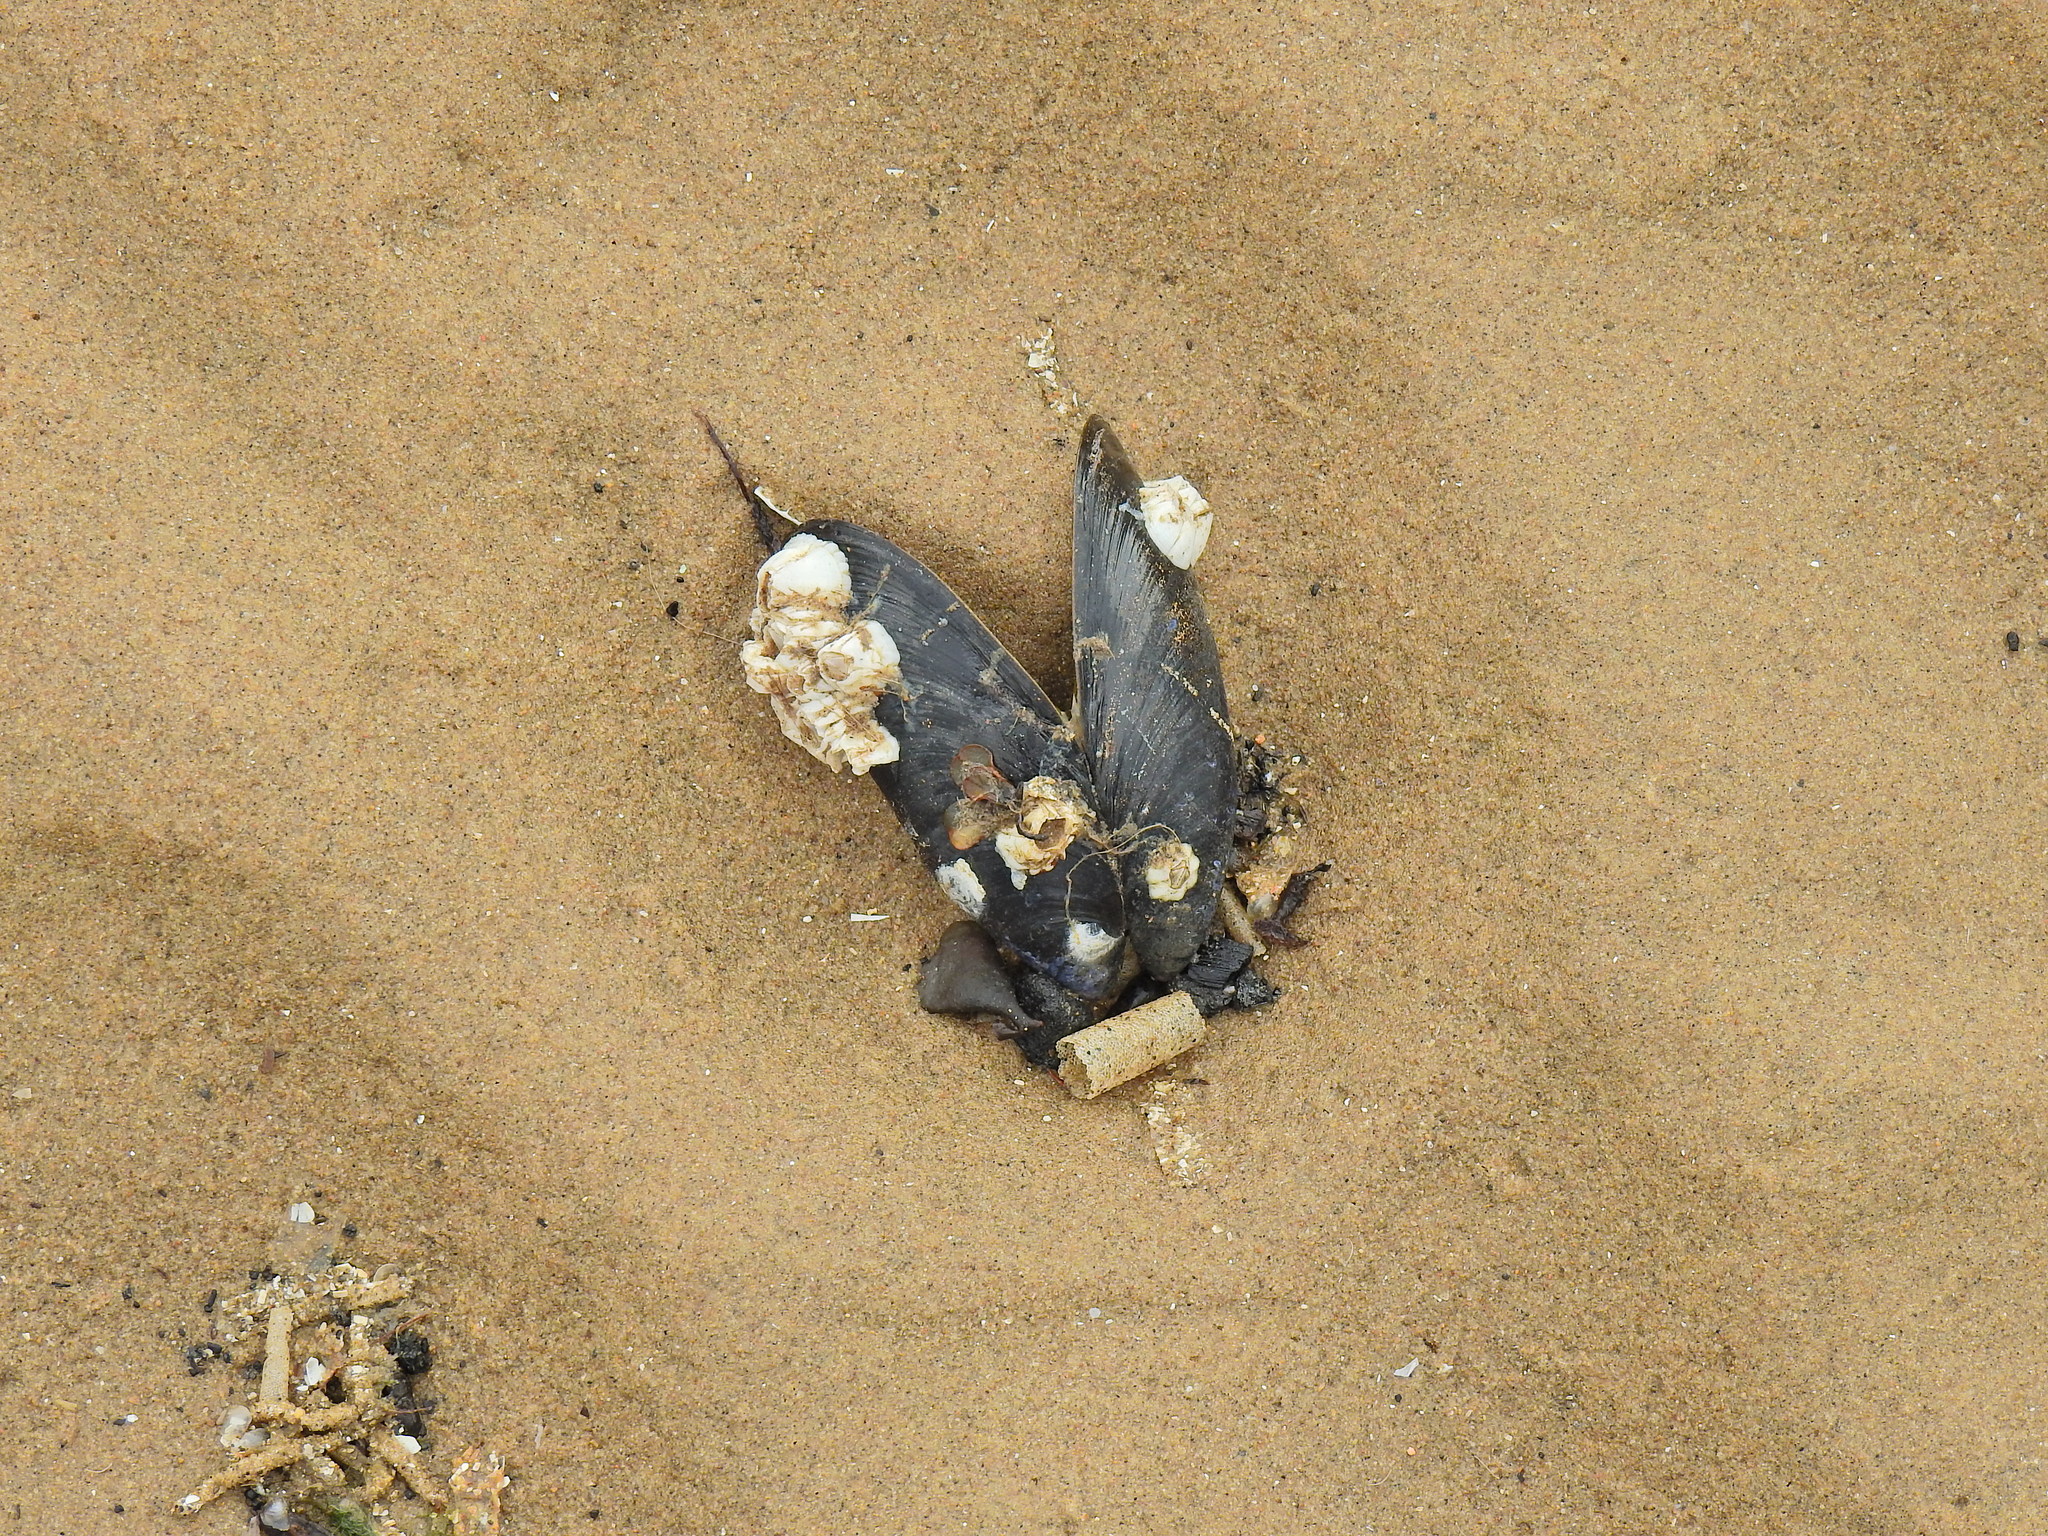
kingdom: Animalia
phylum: Mollusca
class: Bivalvia
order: Mytilida
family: Mytilidae
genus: Mytilus
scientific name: Mytilus edulis
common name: Blue mussel
